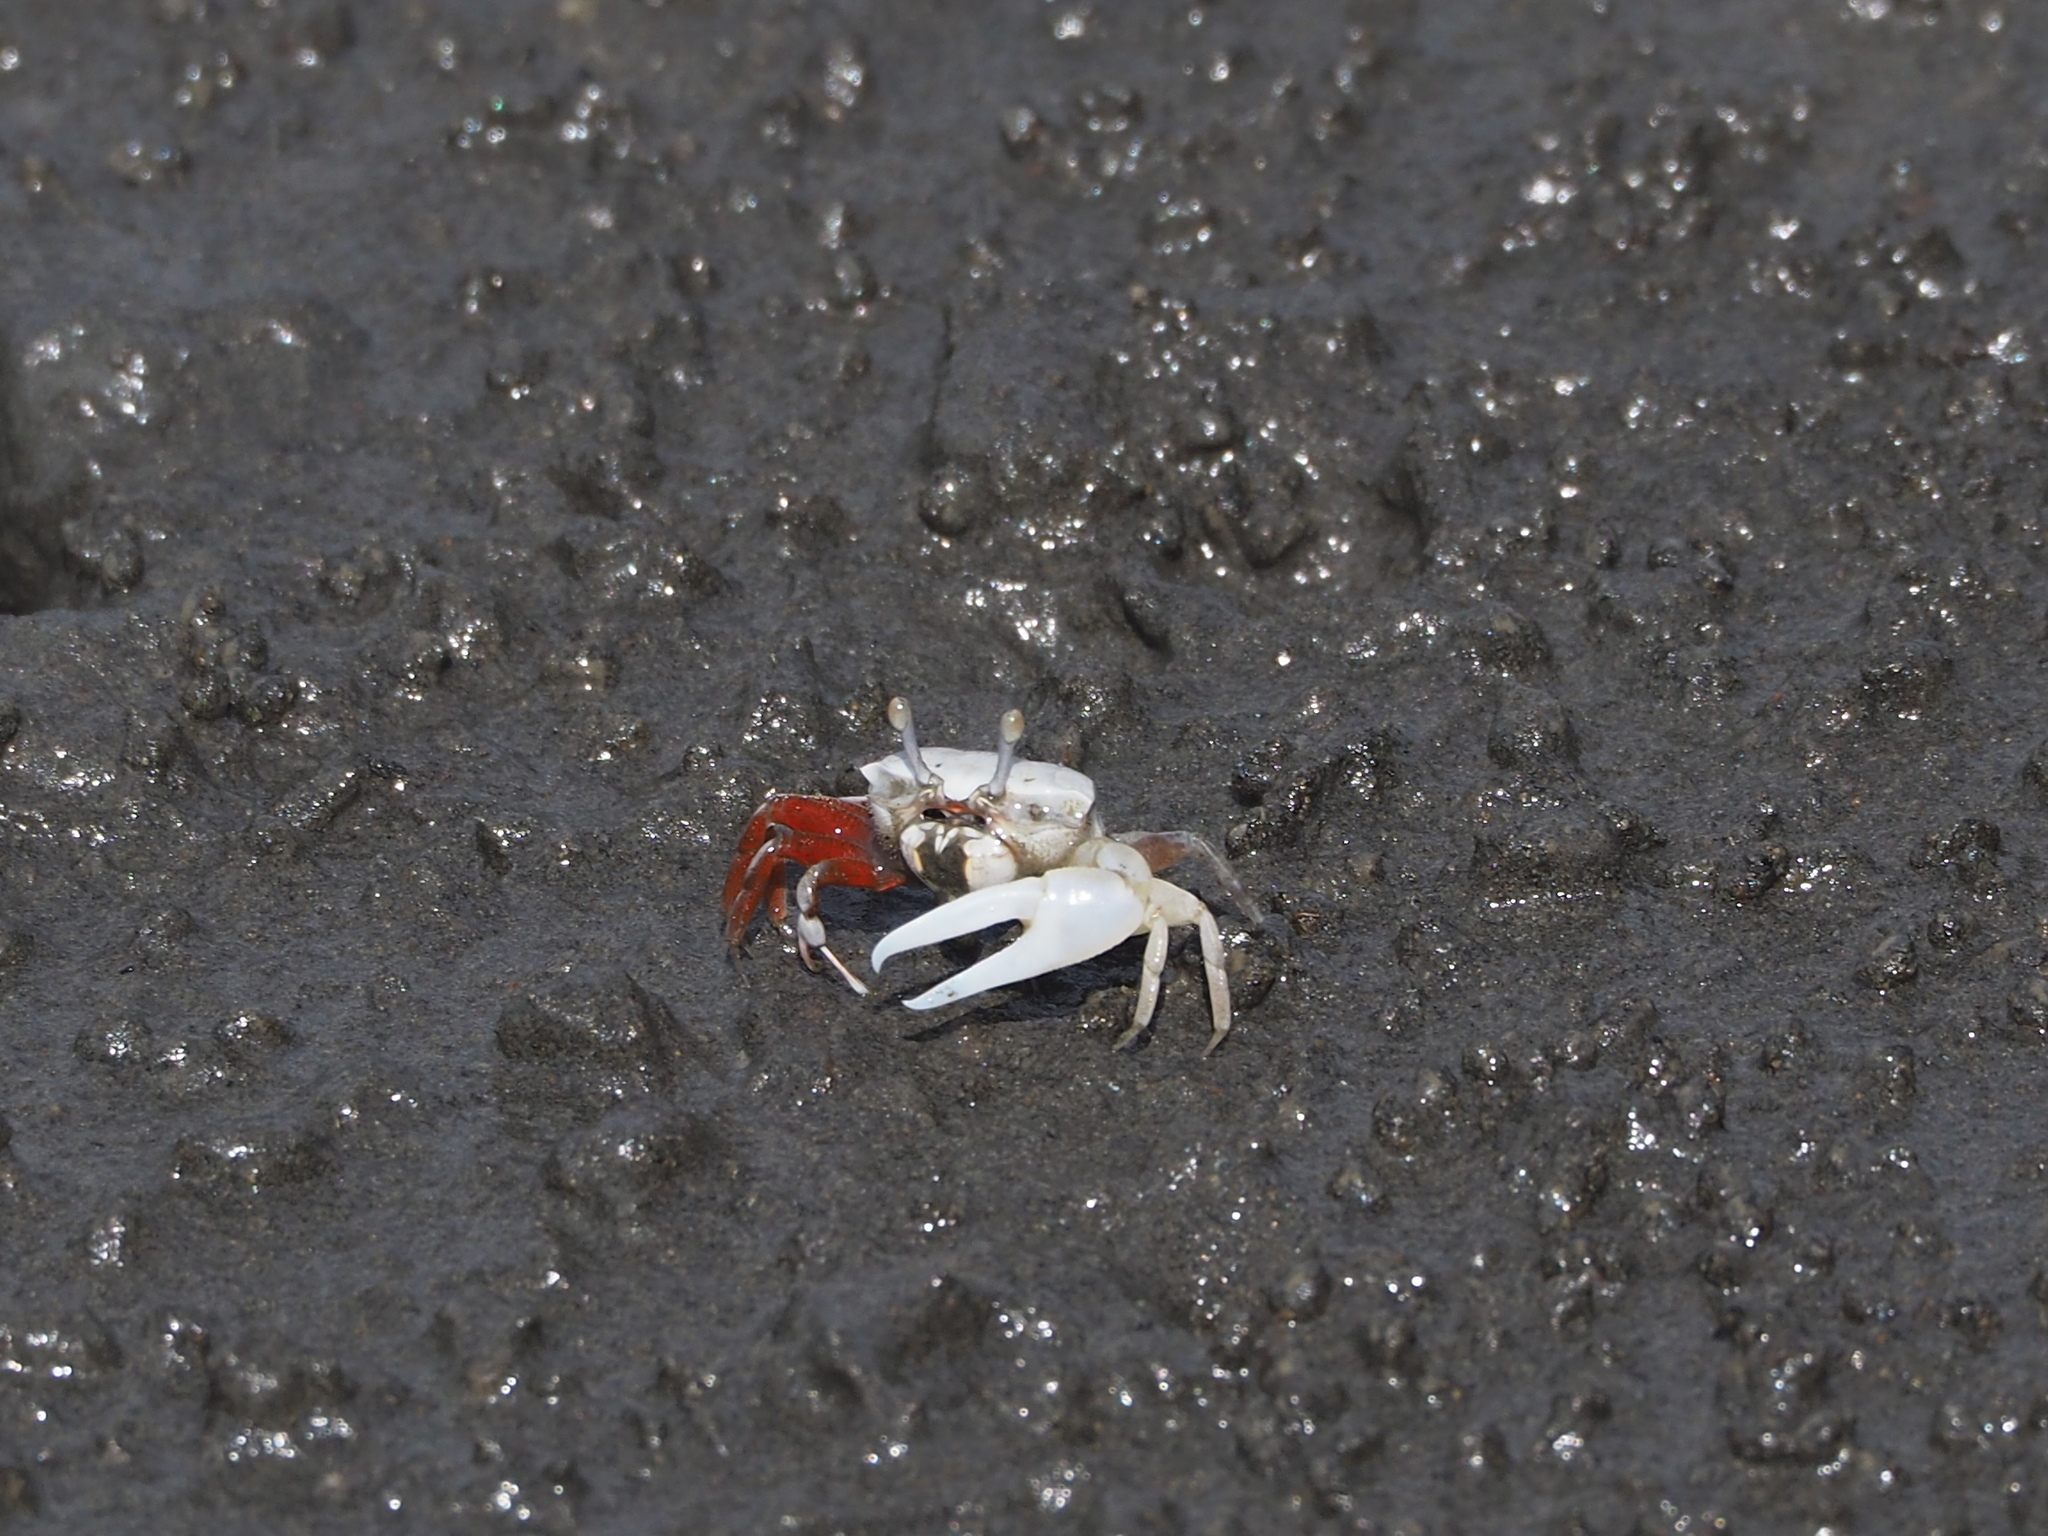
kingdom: Animalia
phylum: Arthropoda
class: Malacostraca
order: Decapoda
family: Ocypodidae
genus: Austruca
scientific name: Austruca lactea
